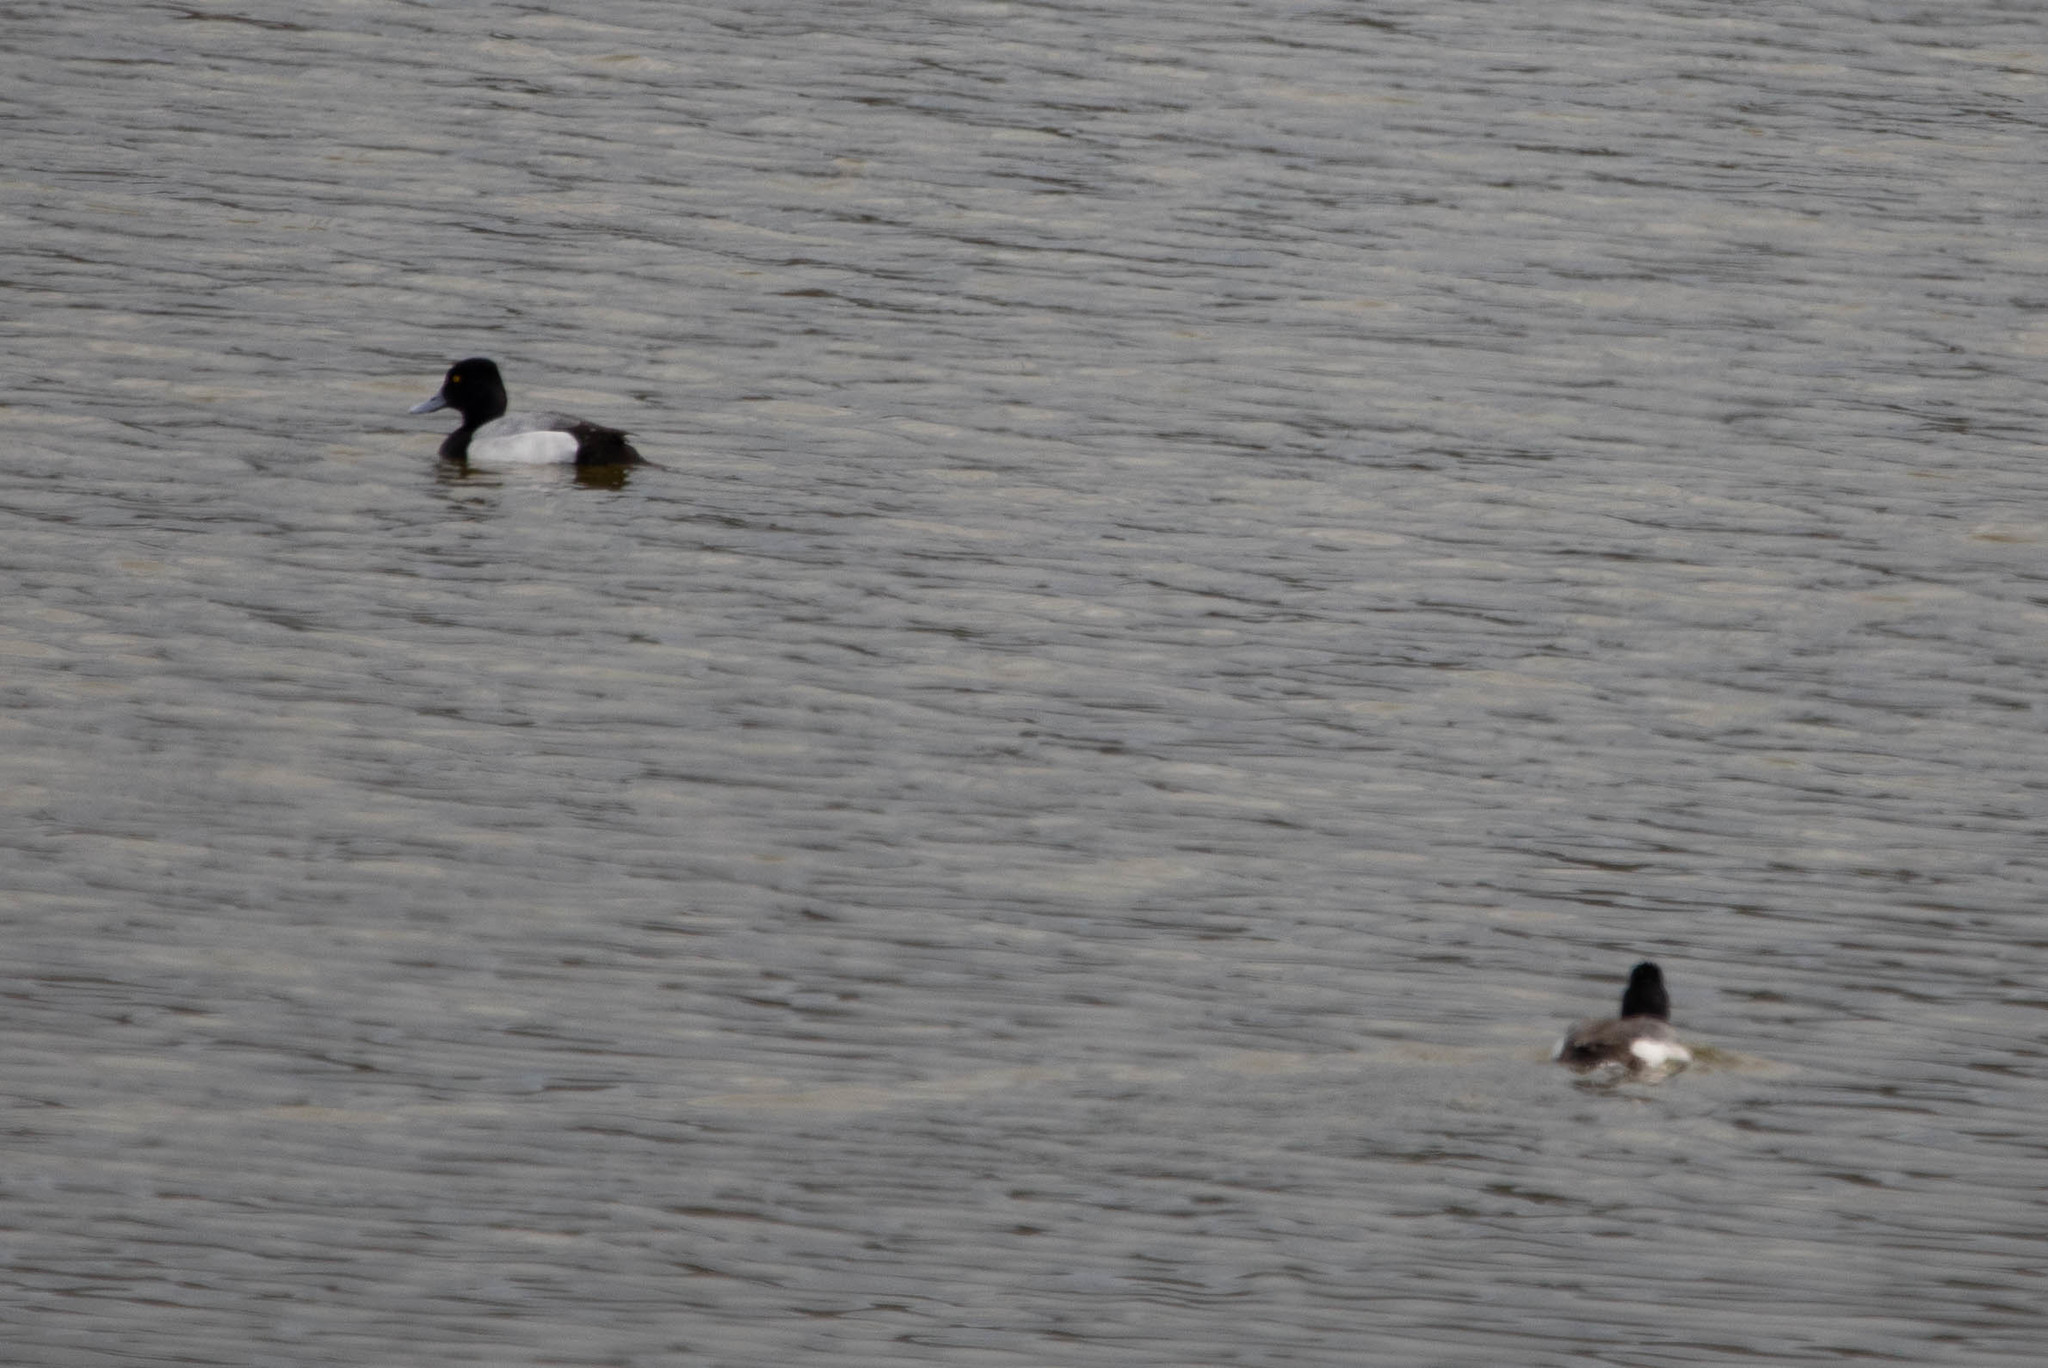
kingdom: Animalia
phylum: Chordata
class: Aves
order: Anseriformes
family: Anatidae
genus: Aythya
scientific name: Aythya affinis
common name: Lesser scaup
